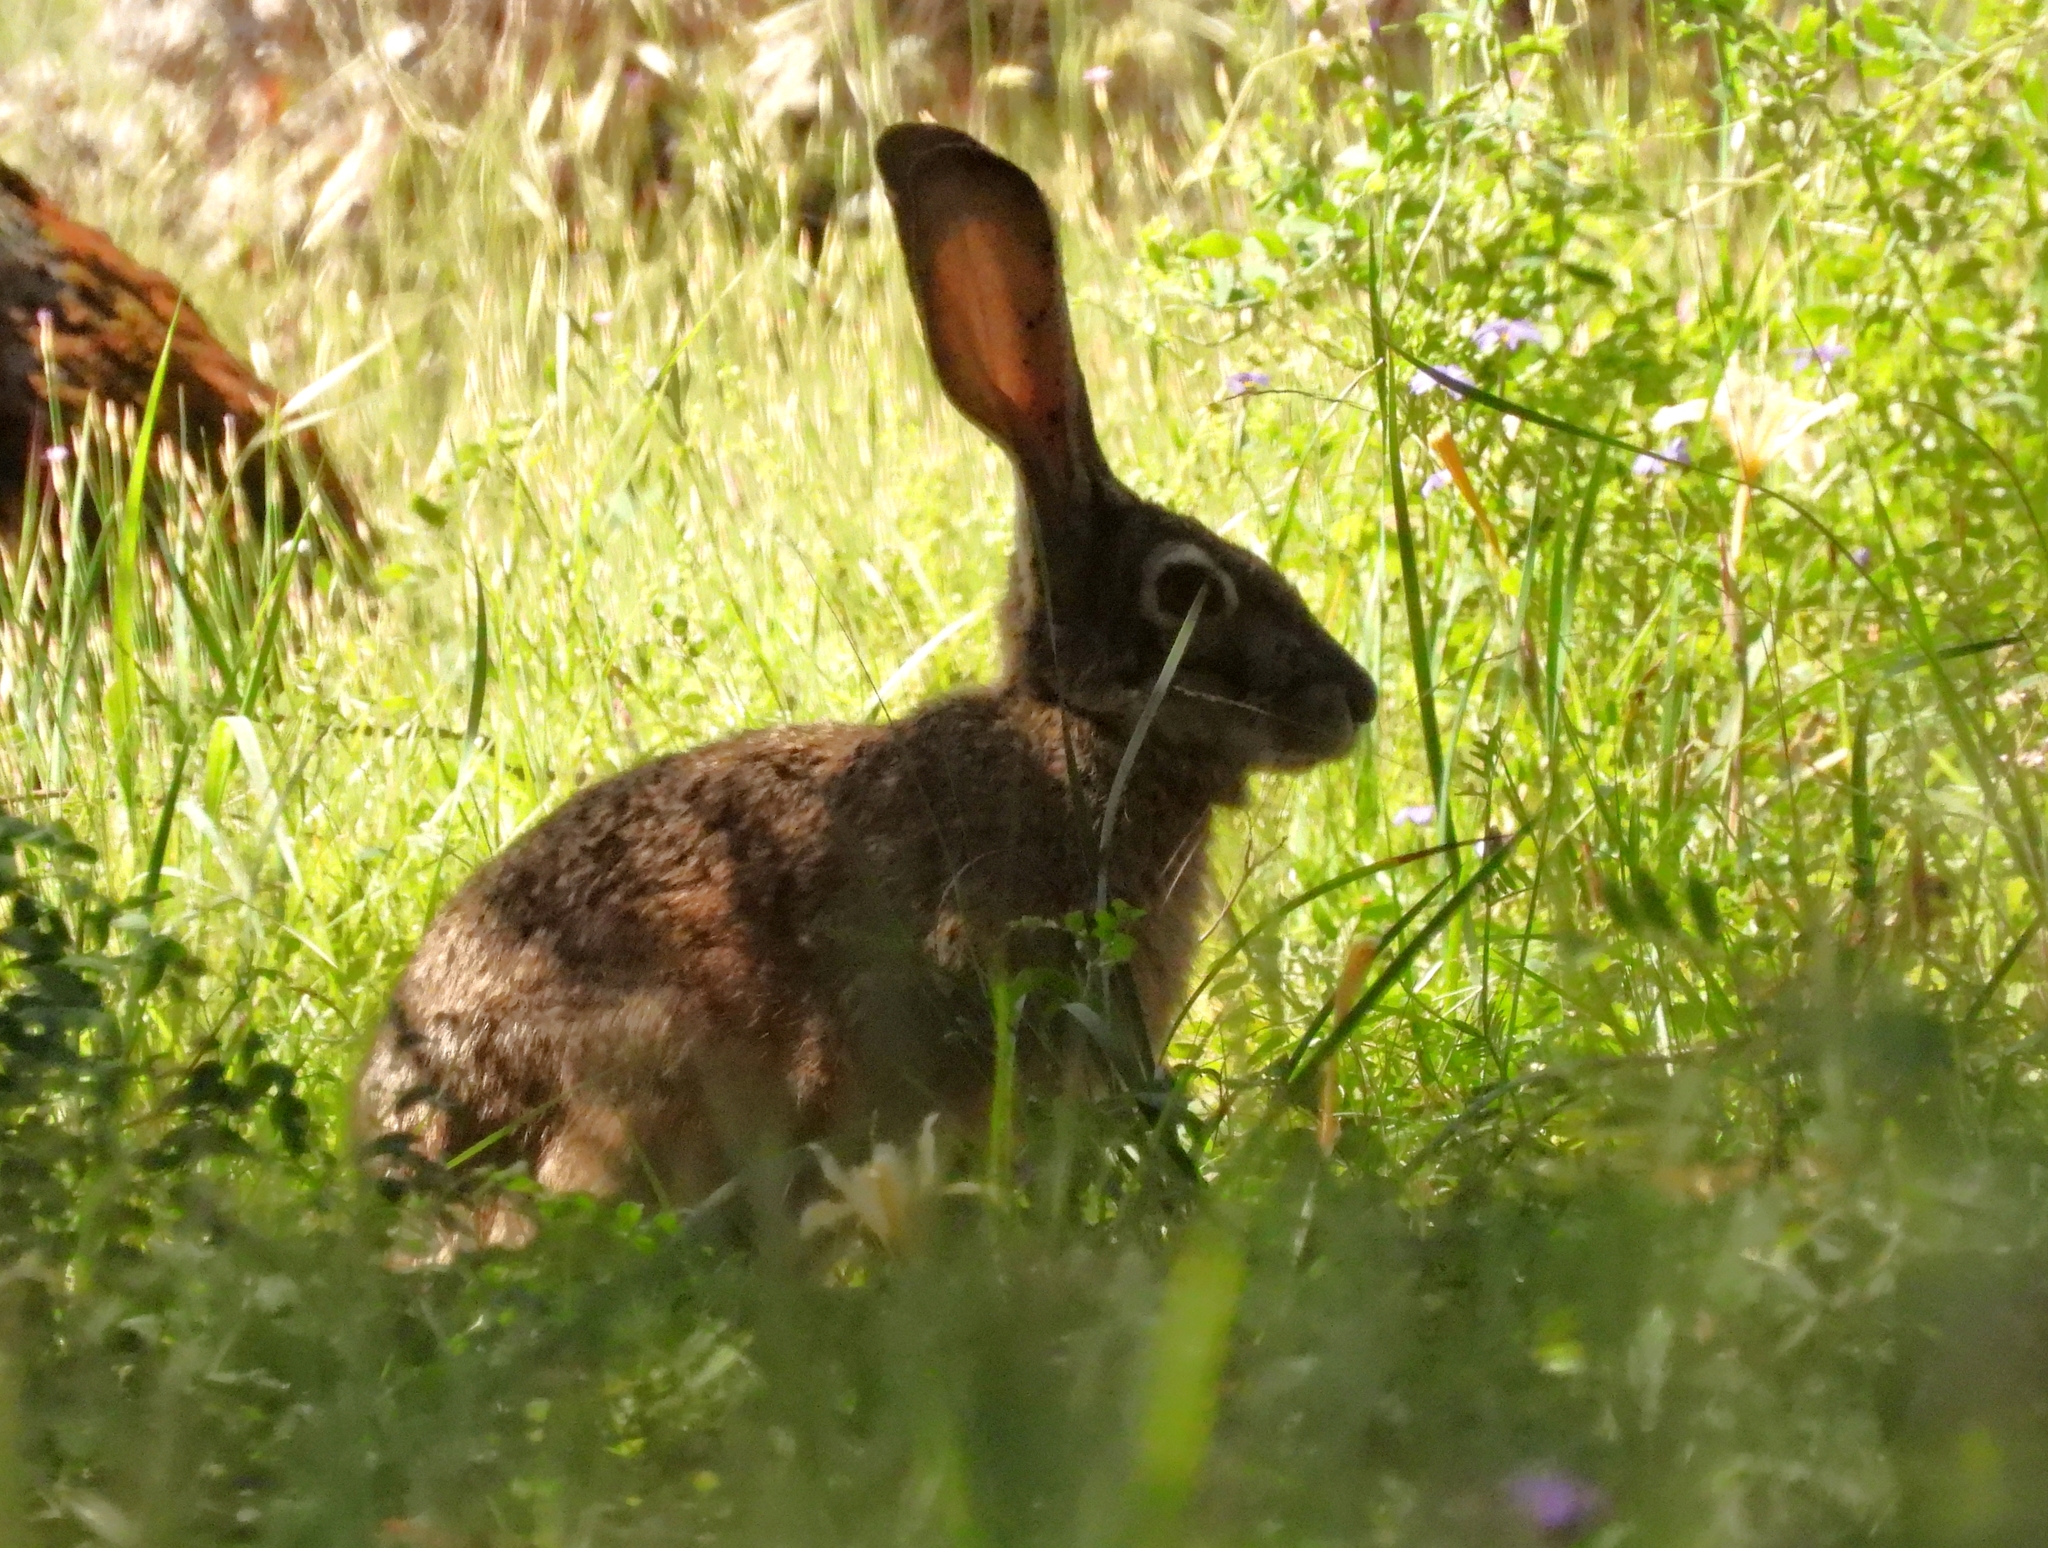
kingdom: Animalia
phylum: Chordata
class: Mammalia
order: Lagomorpha
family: Leporidae
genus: Lepus
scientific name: Lepus californicus
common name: Black-tailed jackrabbit
